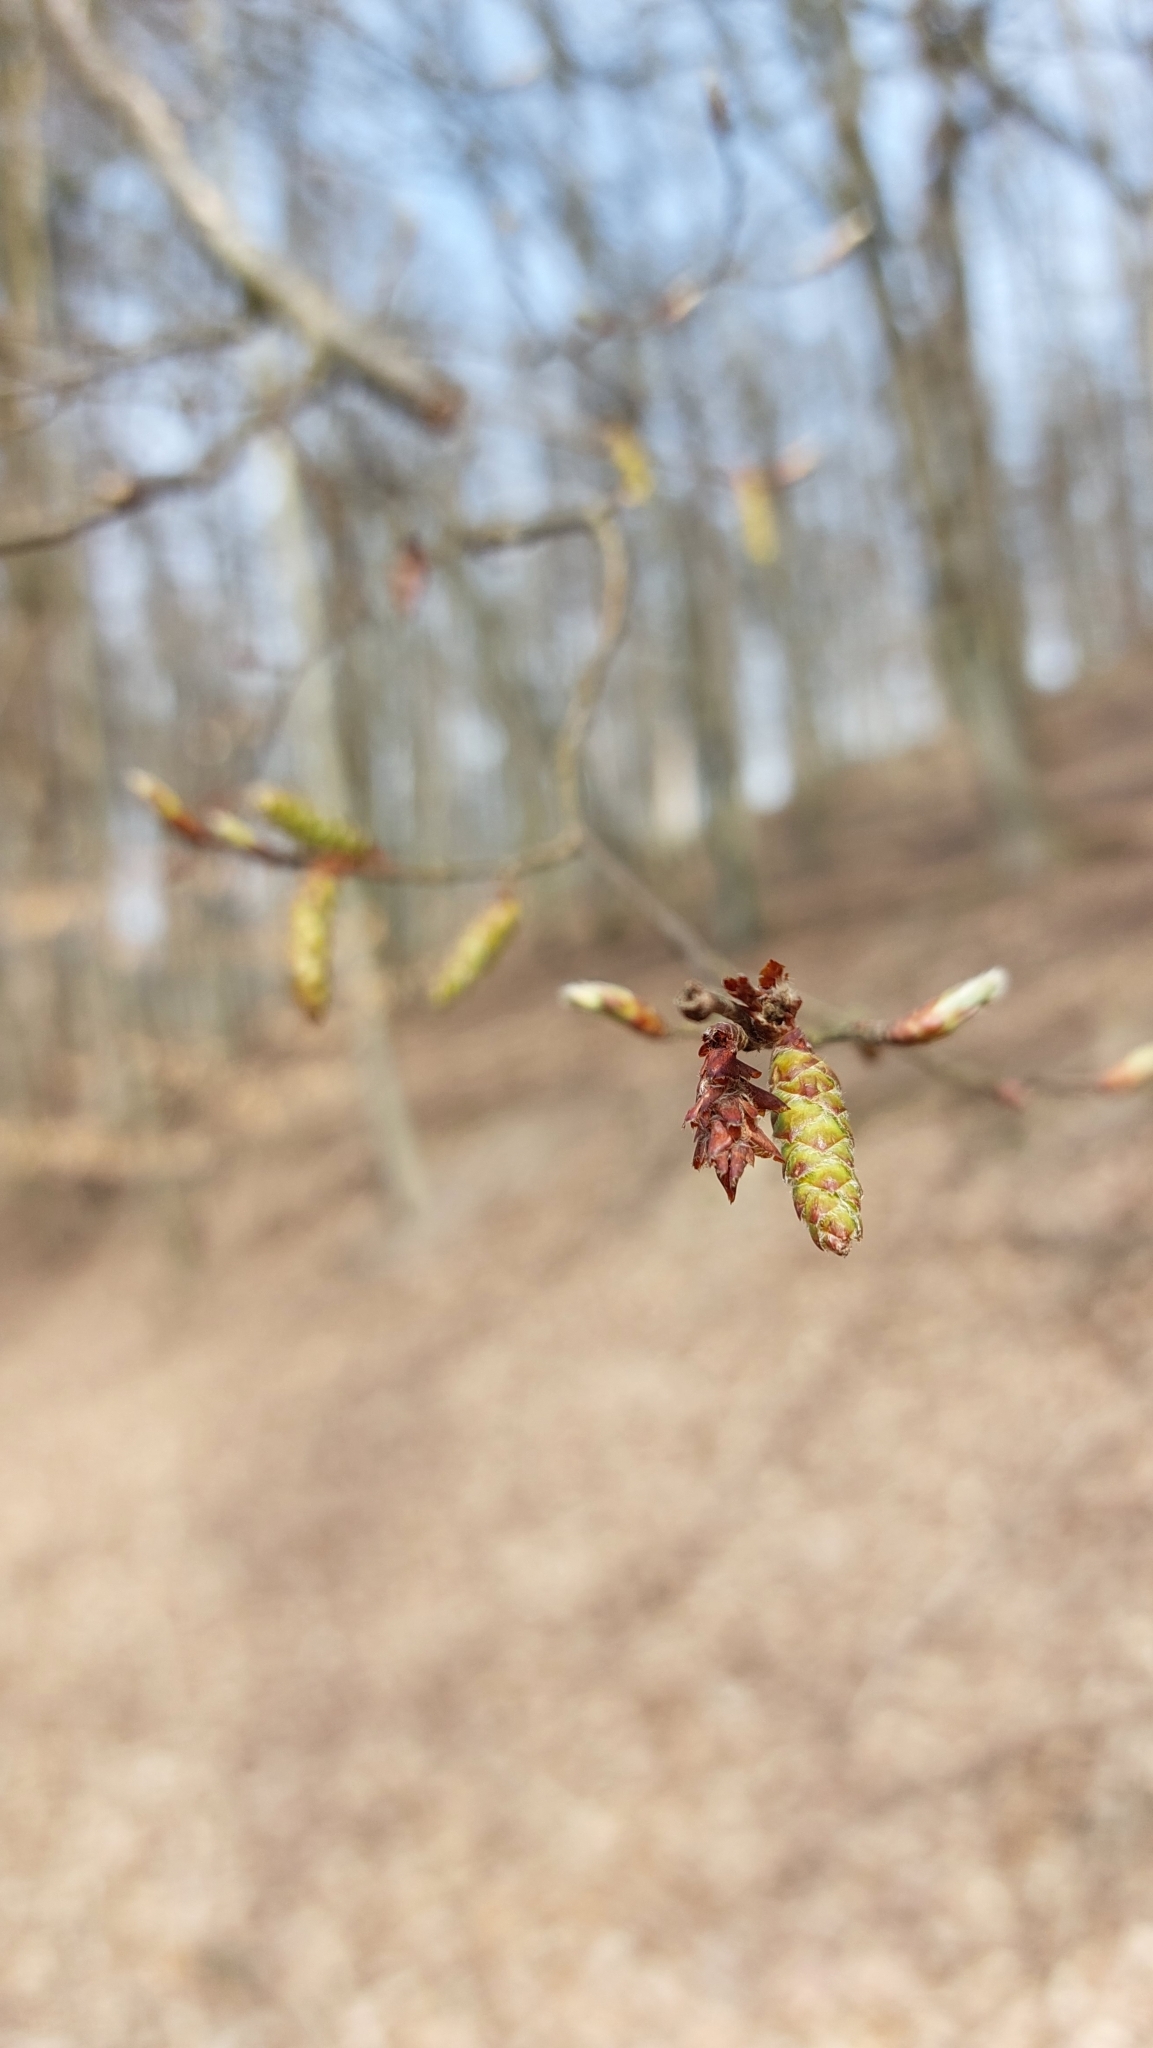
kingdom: Plantae
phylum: Tracheophyta
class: Magnoliopsida
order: Fagales
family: Betulaceae
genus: Carpinus
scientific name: Carpinus betulus
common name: Hornbeam
